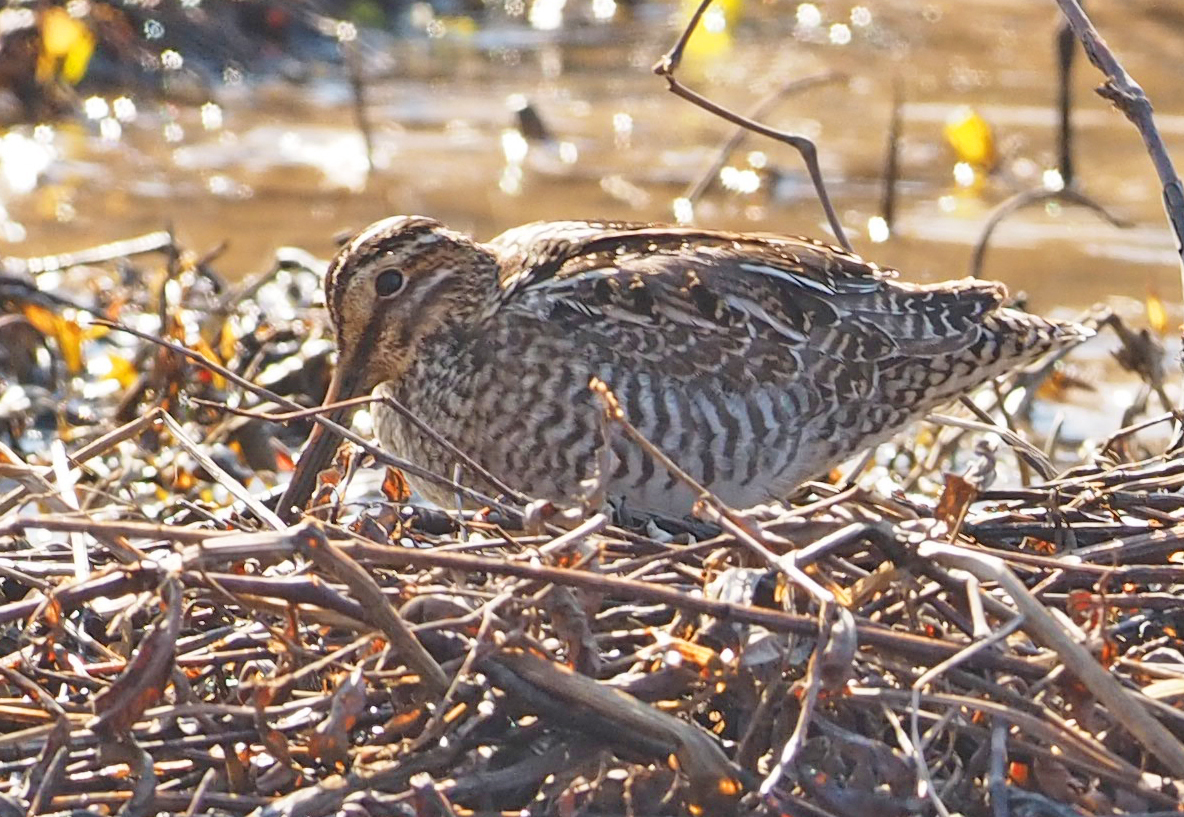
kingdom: Animalia
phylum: Chordata
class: Aves
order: Charadriiformes
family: Scolopacidae
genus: Gallinago
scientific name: Gallinago delicata
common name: Wilson's snipe
